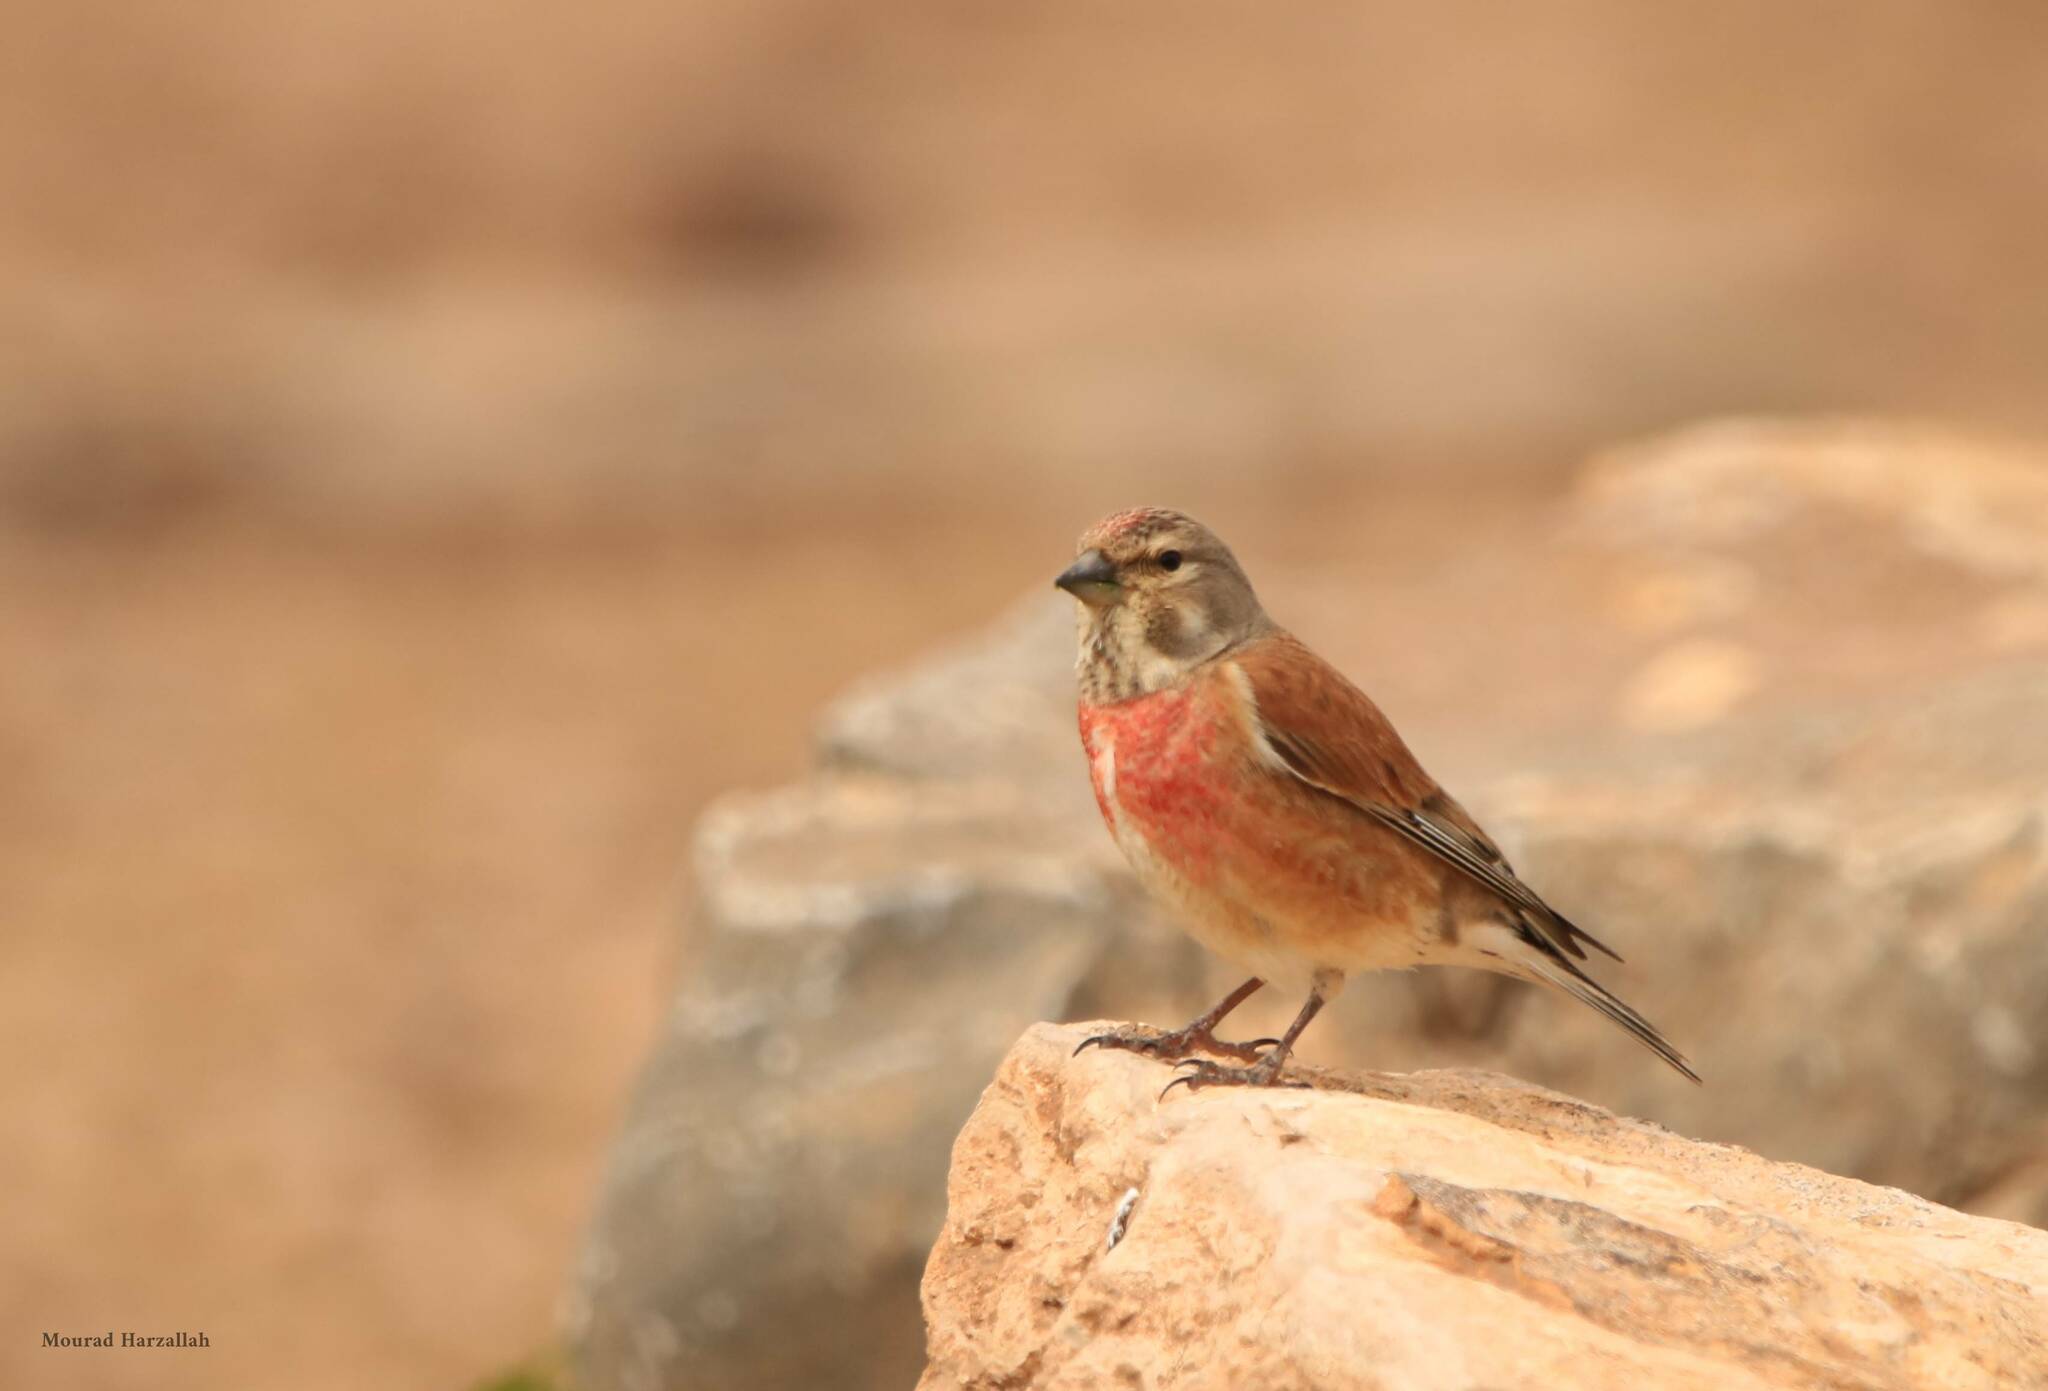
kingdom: Animalia
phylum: Chordata
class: Aves
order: Passeriformes
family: Fringillidae
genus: Linaria
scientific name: Linaria cannabina
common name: Common linnet
